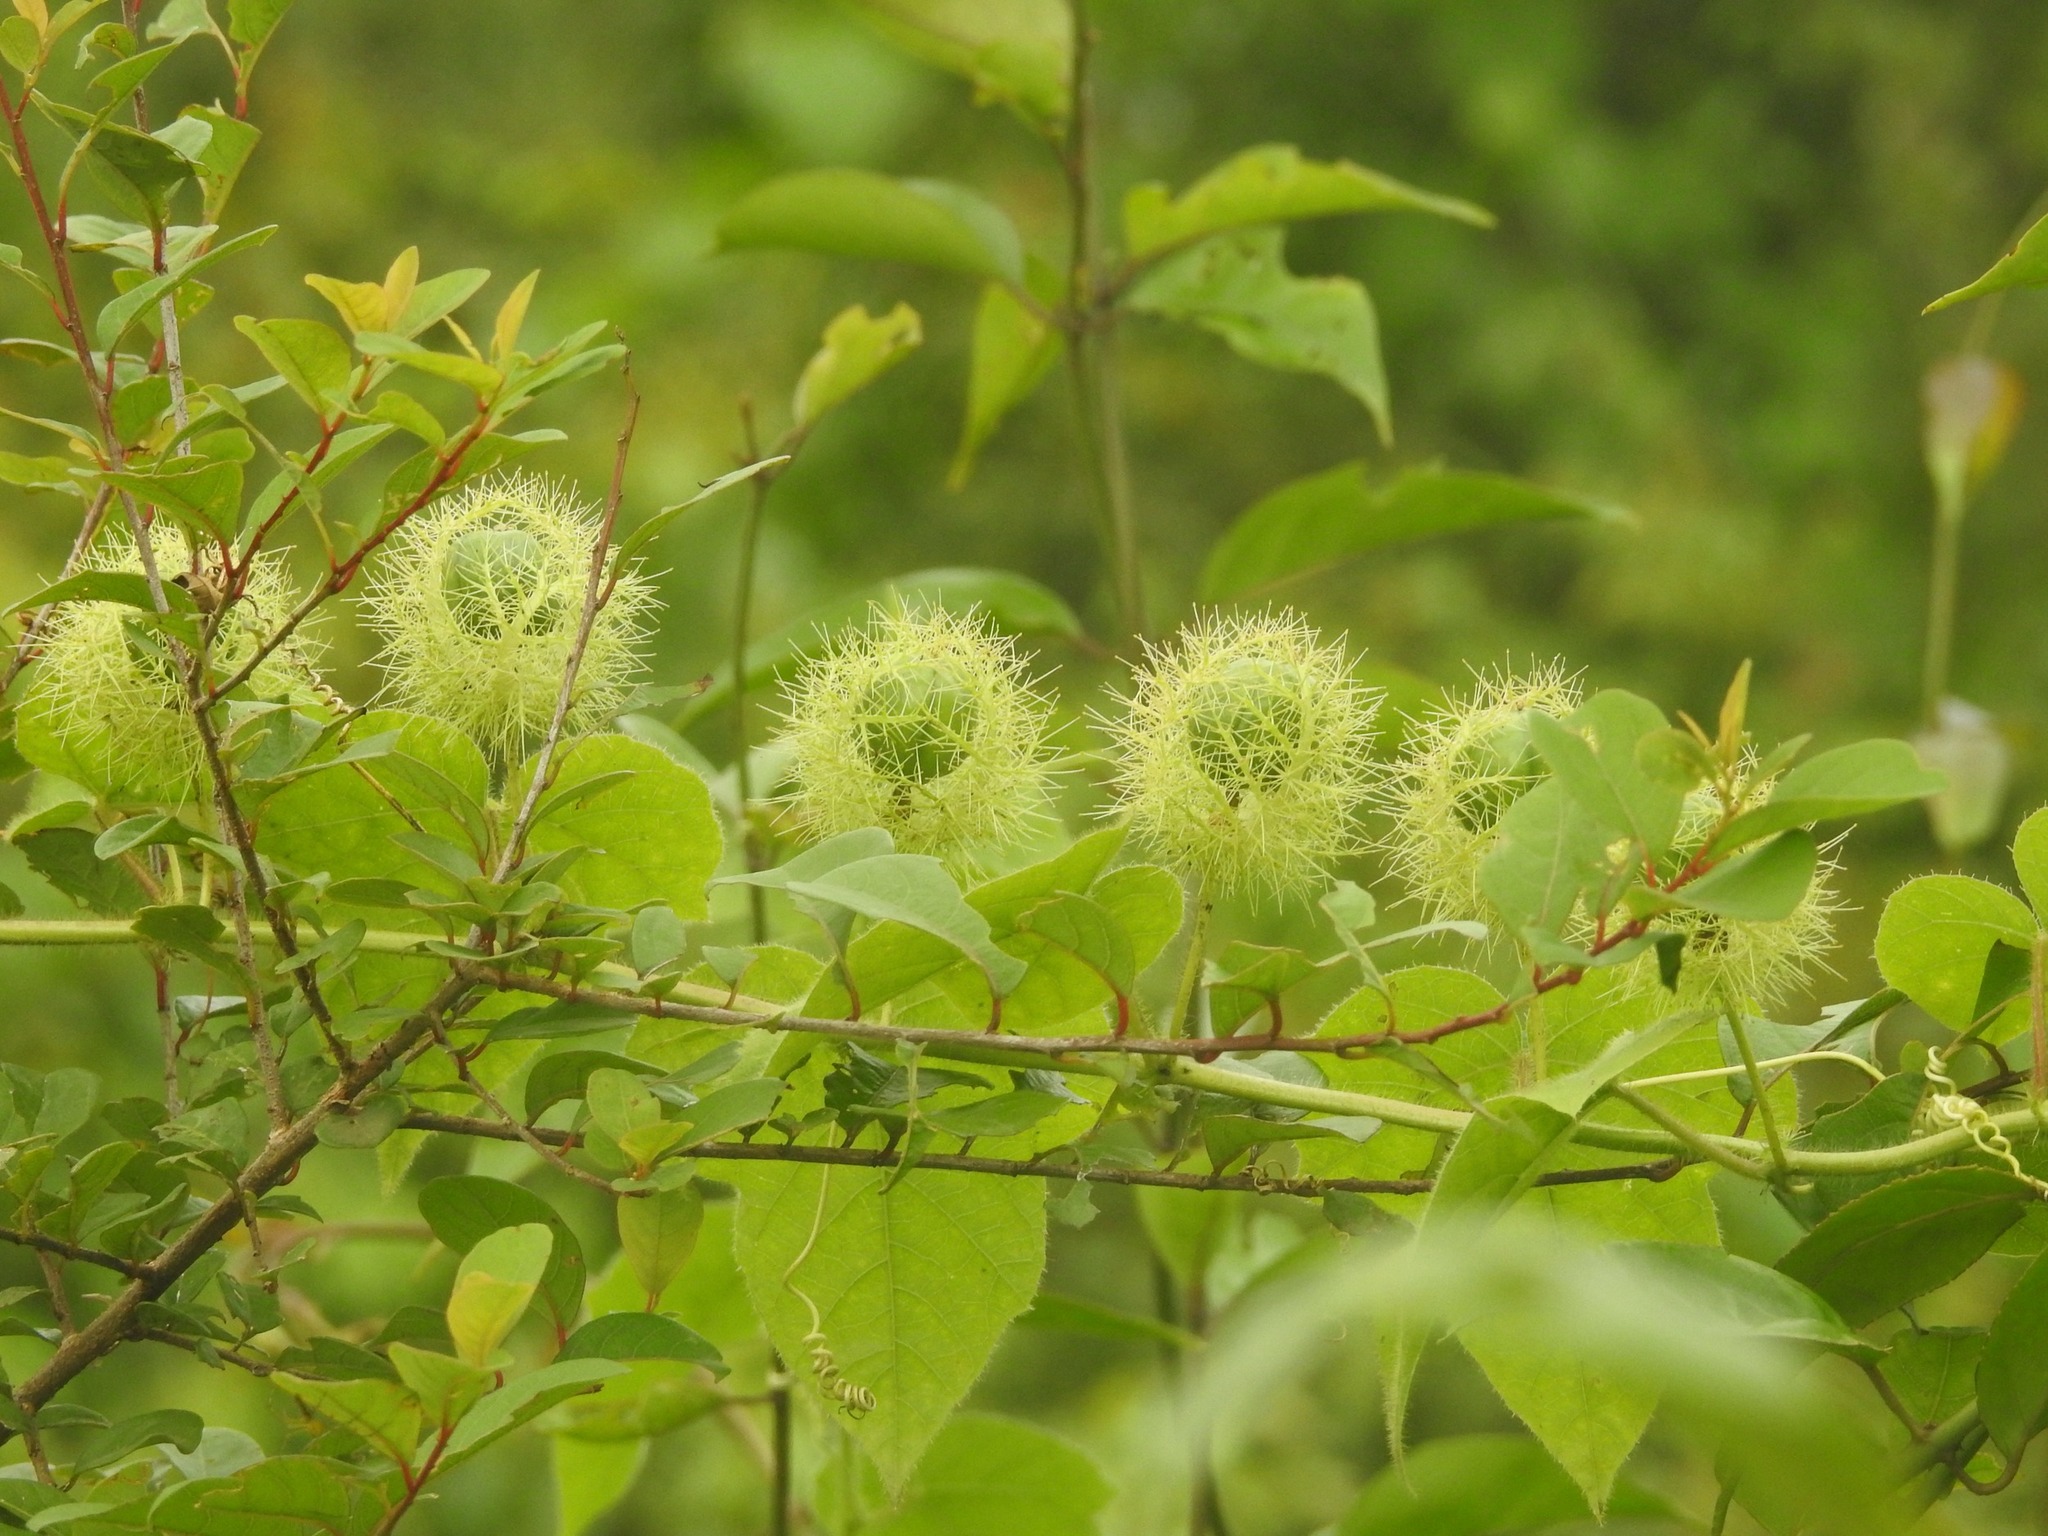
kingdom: Plantae
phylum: Tracheophyta
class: Magnoliopsida
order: Malpighiales
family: Passifloraceae
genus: Passiflora
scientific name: Passiflora foetida
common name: Fetid passionflower
